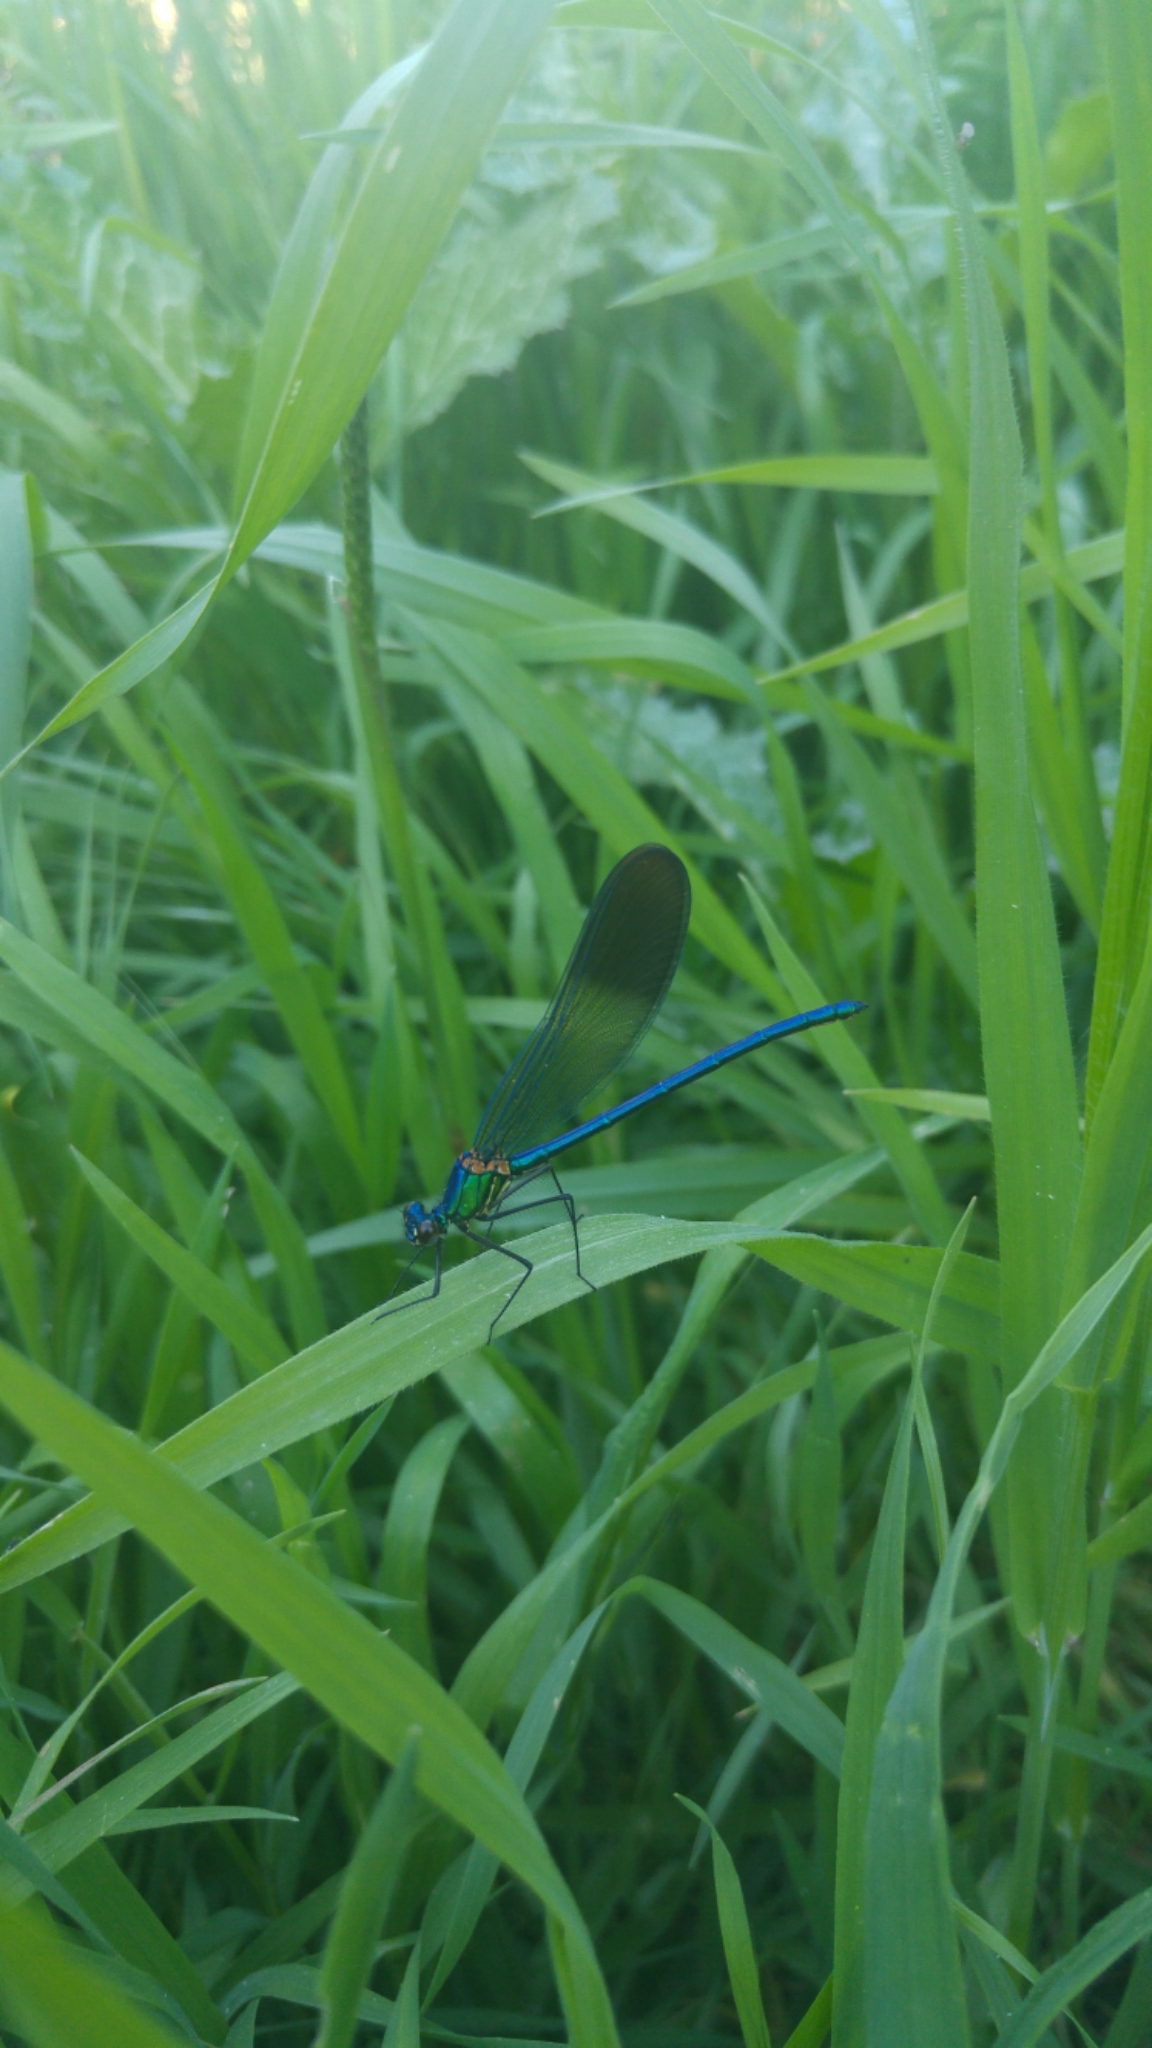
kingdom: Animalia
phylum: Arthropoda
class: Insecta
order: Odonata
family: Calopterygidae
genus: Calopteryx
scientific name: Calopteryx syriaca
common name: Syrian demoiselle
